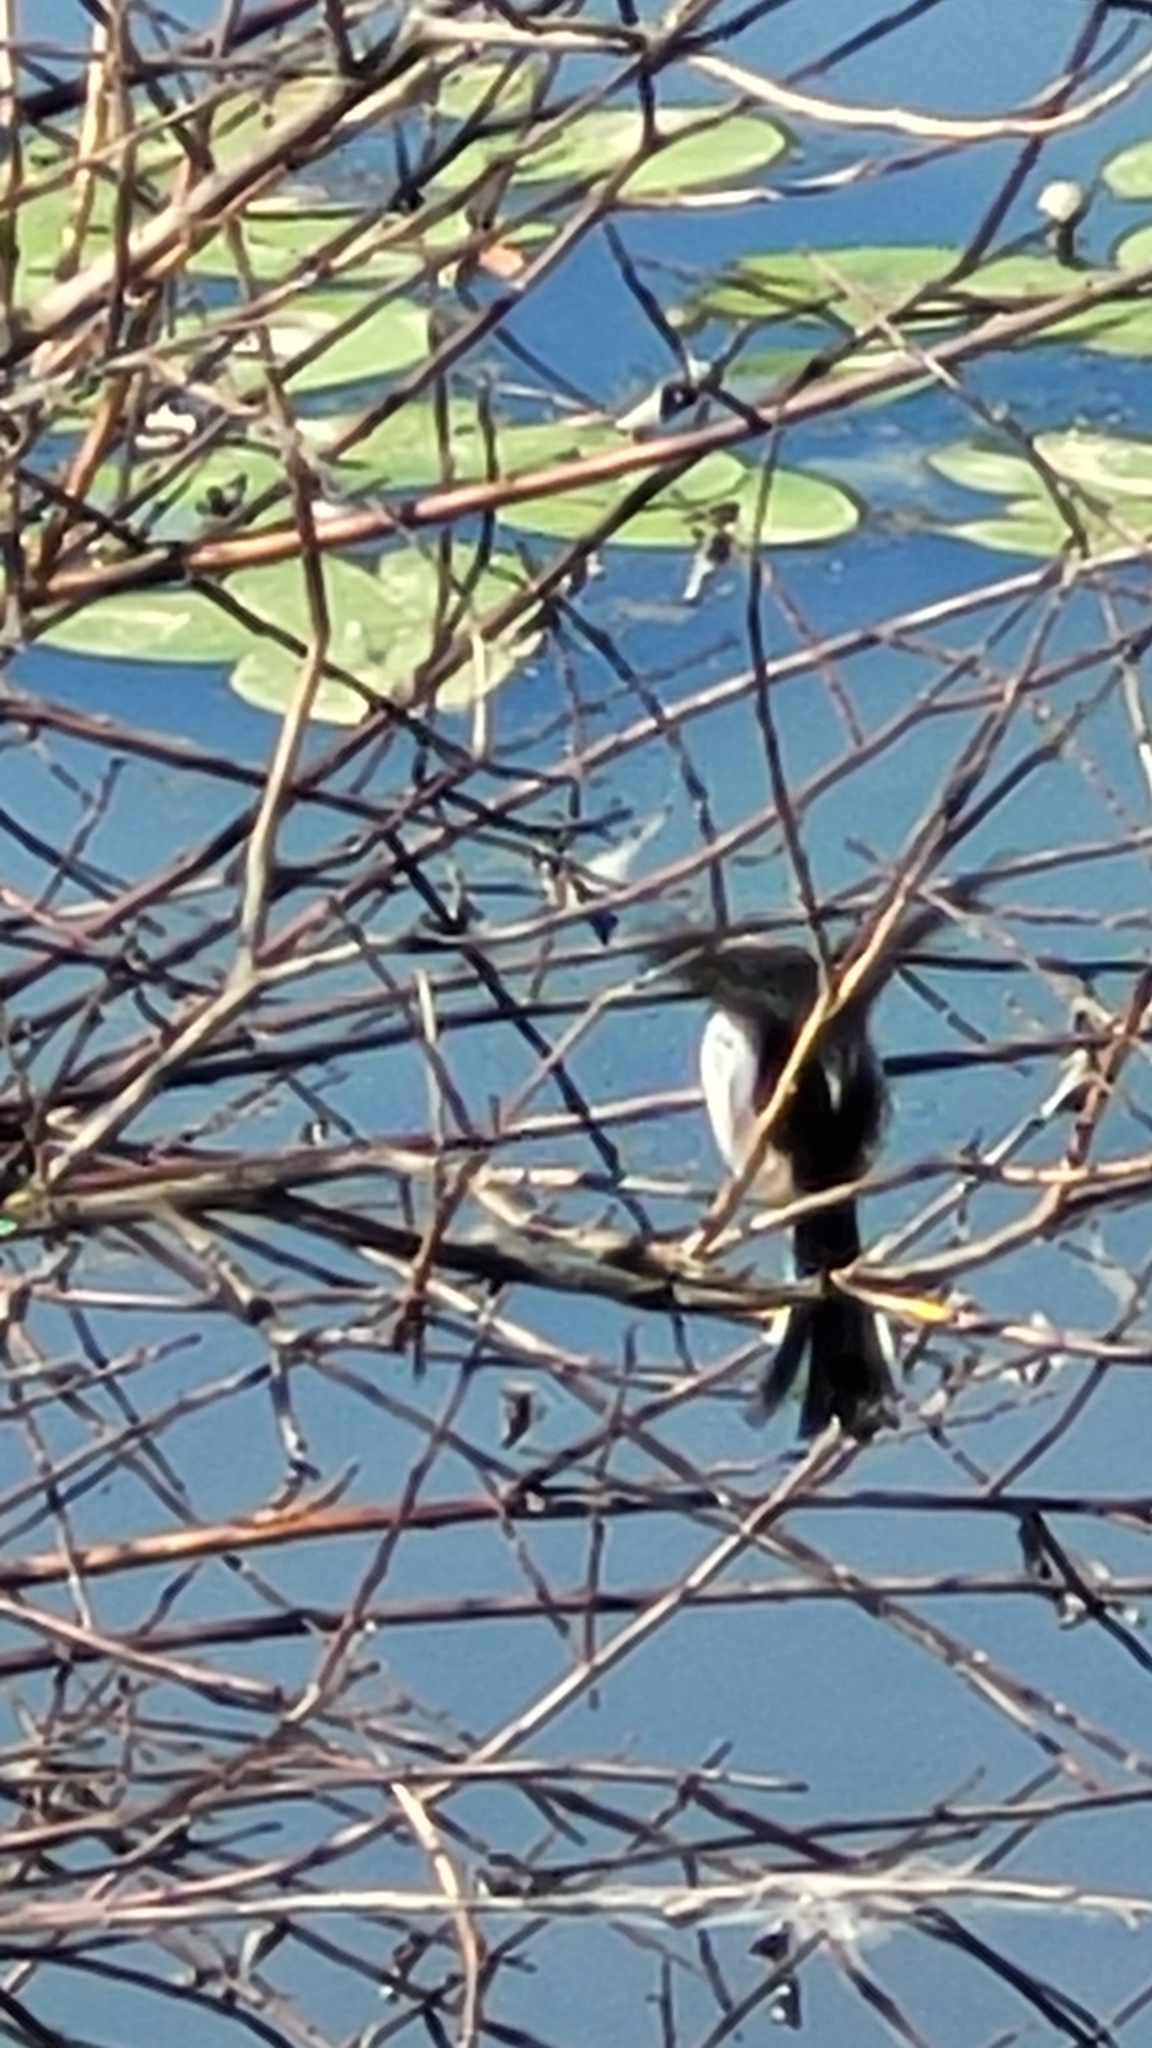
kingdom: Animalia
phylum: Chordata
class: Aves
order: Passeriformes
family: Aegithalidae
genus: Aegithalos
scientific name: Aegithalos caudatus
